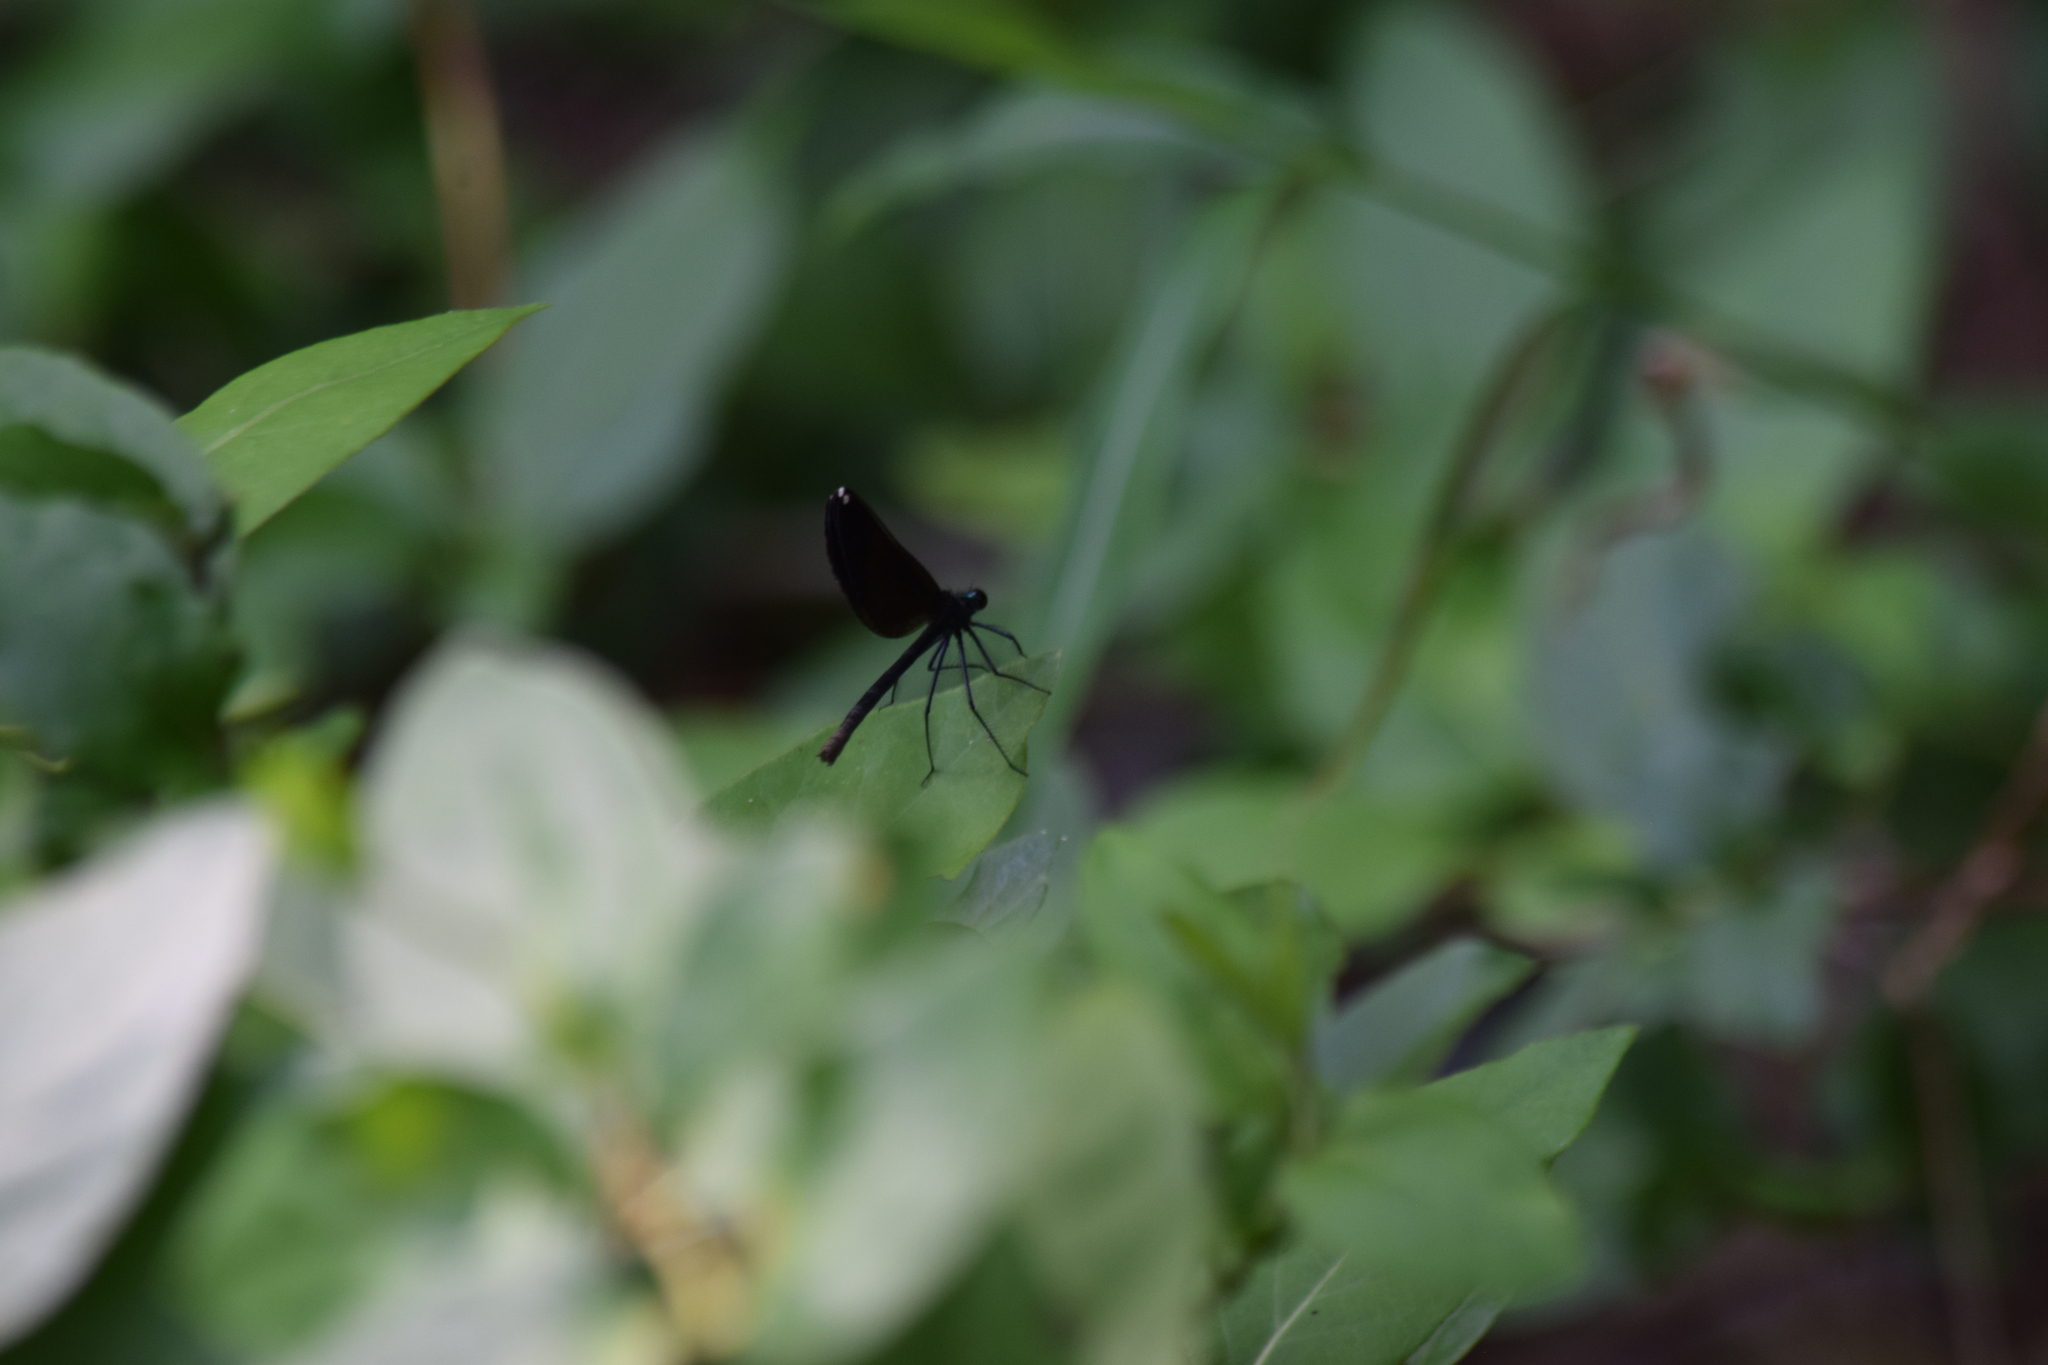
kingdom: Animalia
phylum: Arthropoda
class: Insecta
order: Odonata
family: Calopterygidae
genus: Calopteryx
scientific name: Calopteryx maculata
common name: Ebony jewelwing
